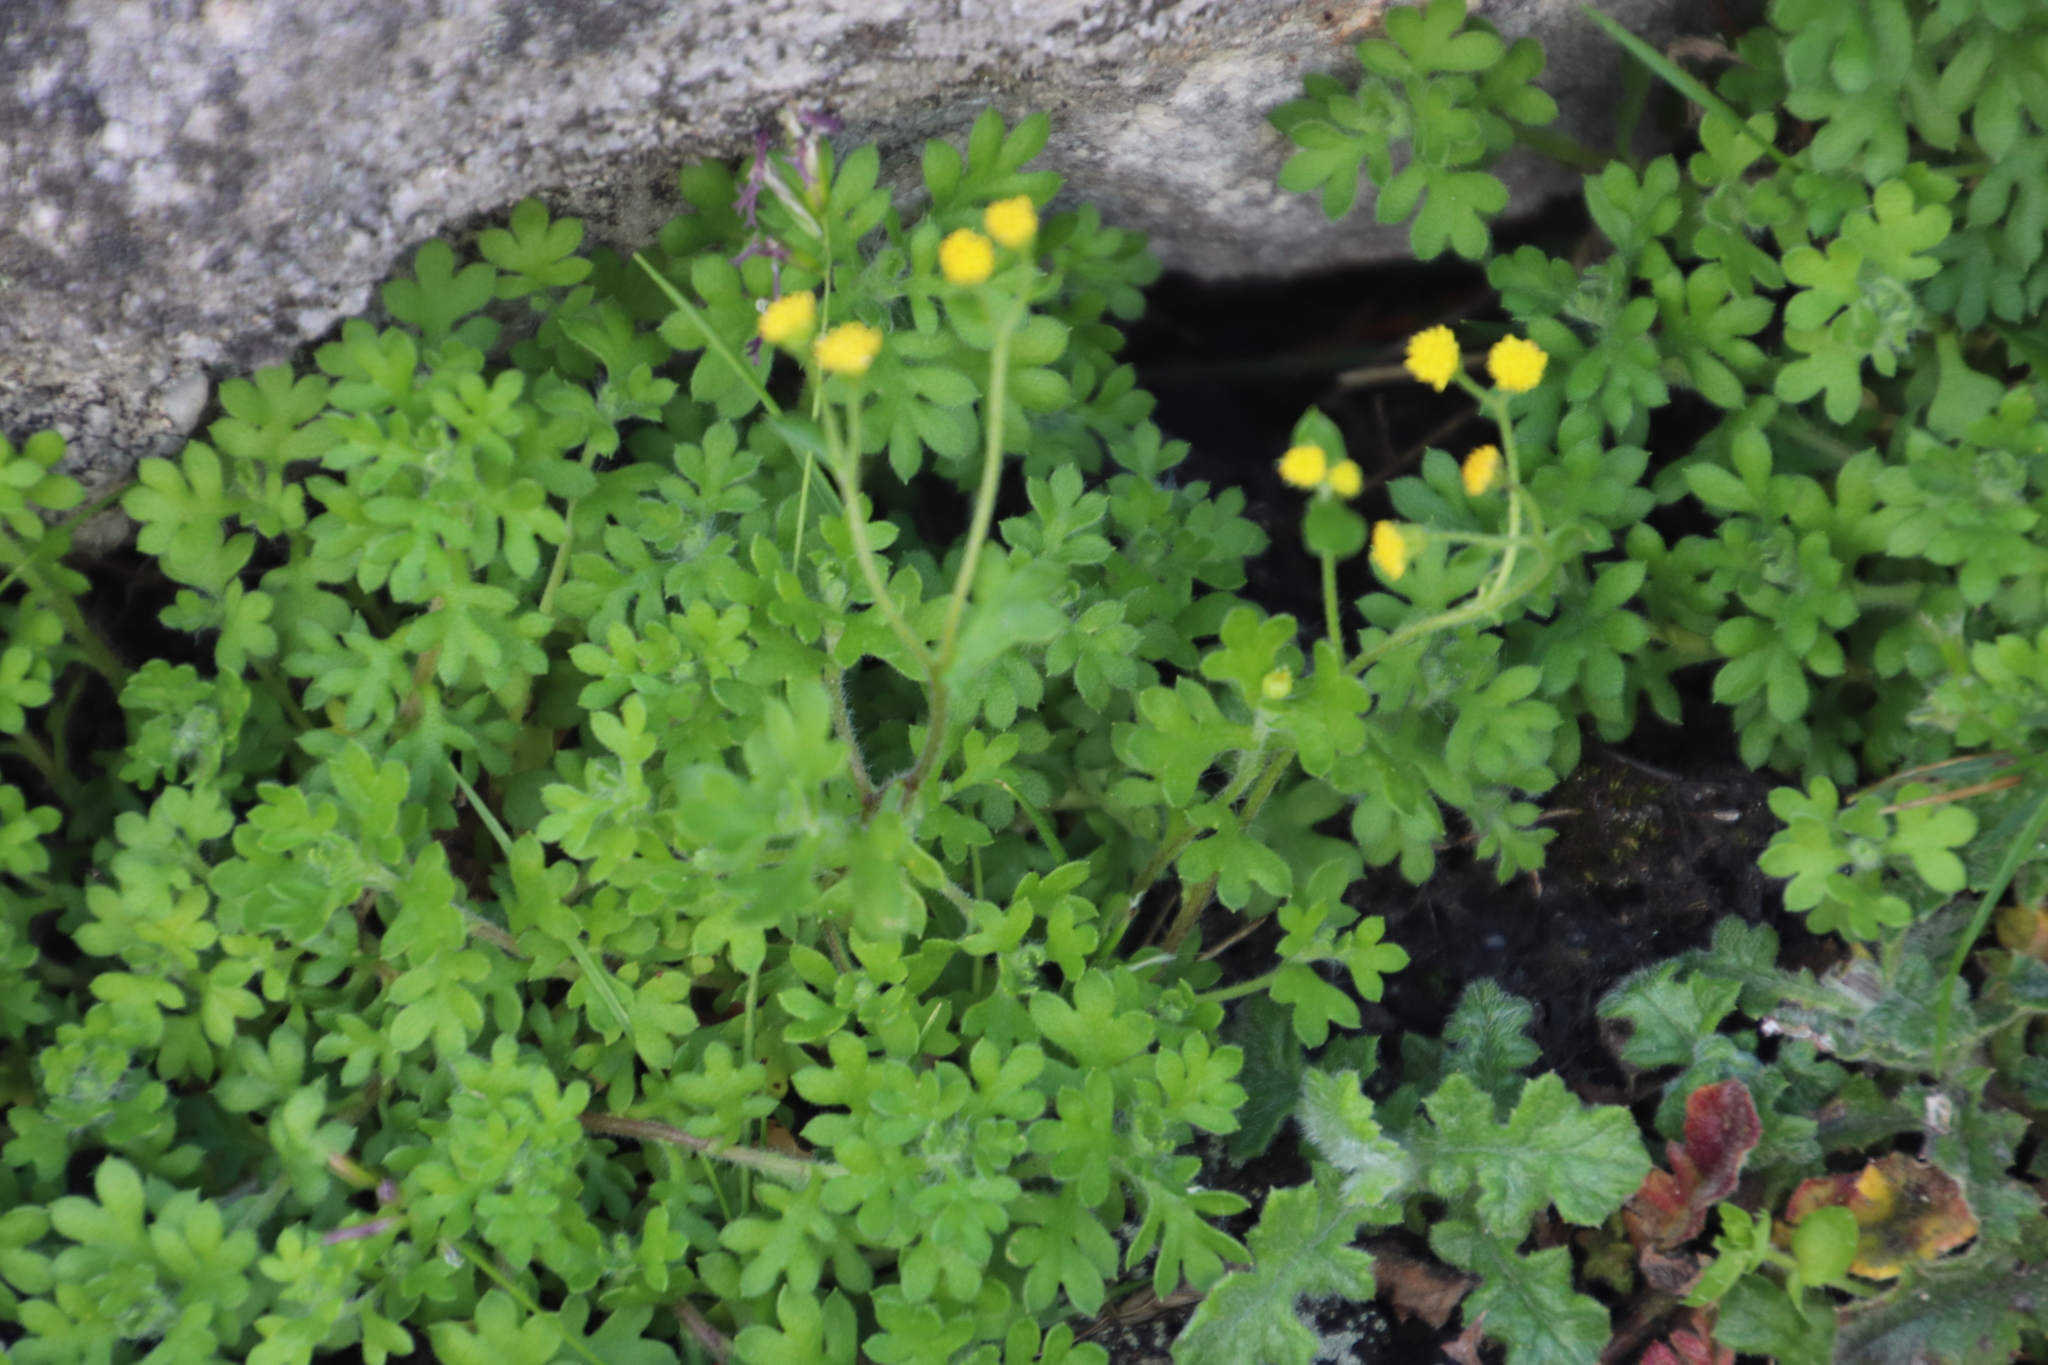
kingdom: Plantae
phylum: Tracheophyta
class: Magnoliopsida
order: Asterales
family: Asteraceae
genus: Hippia
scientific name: Hippia frutescens
